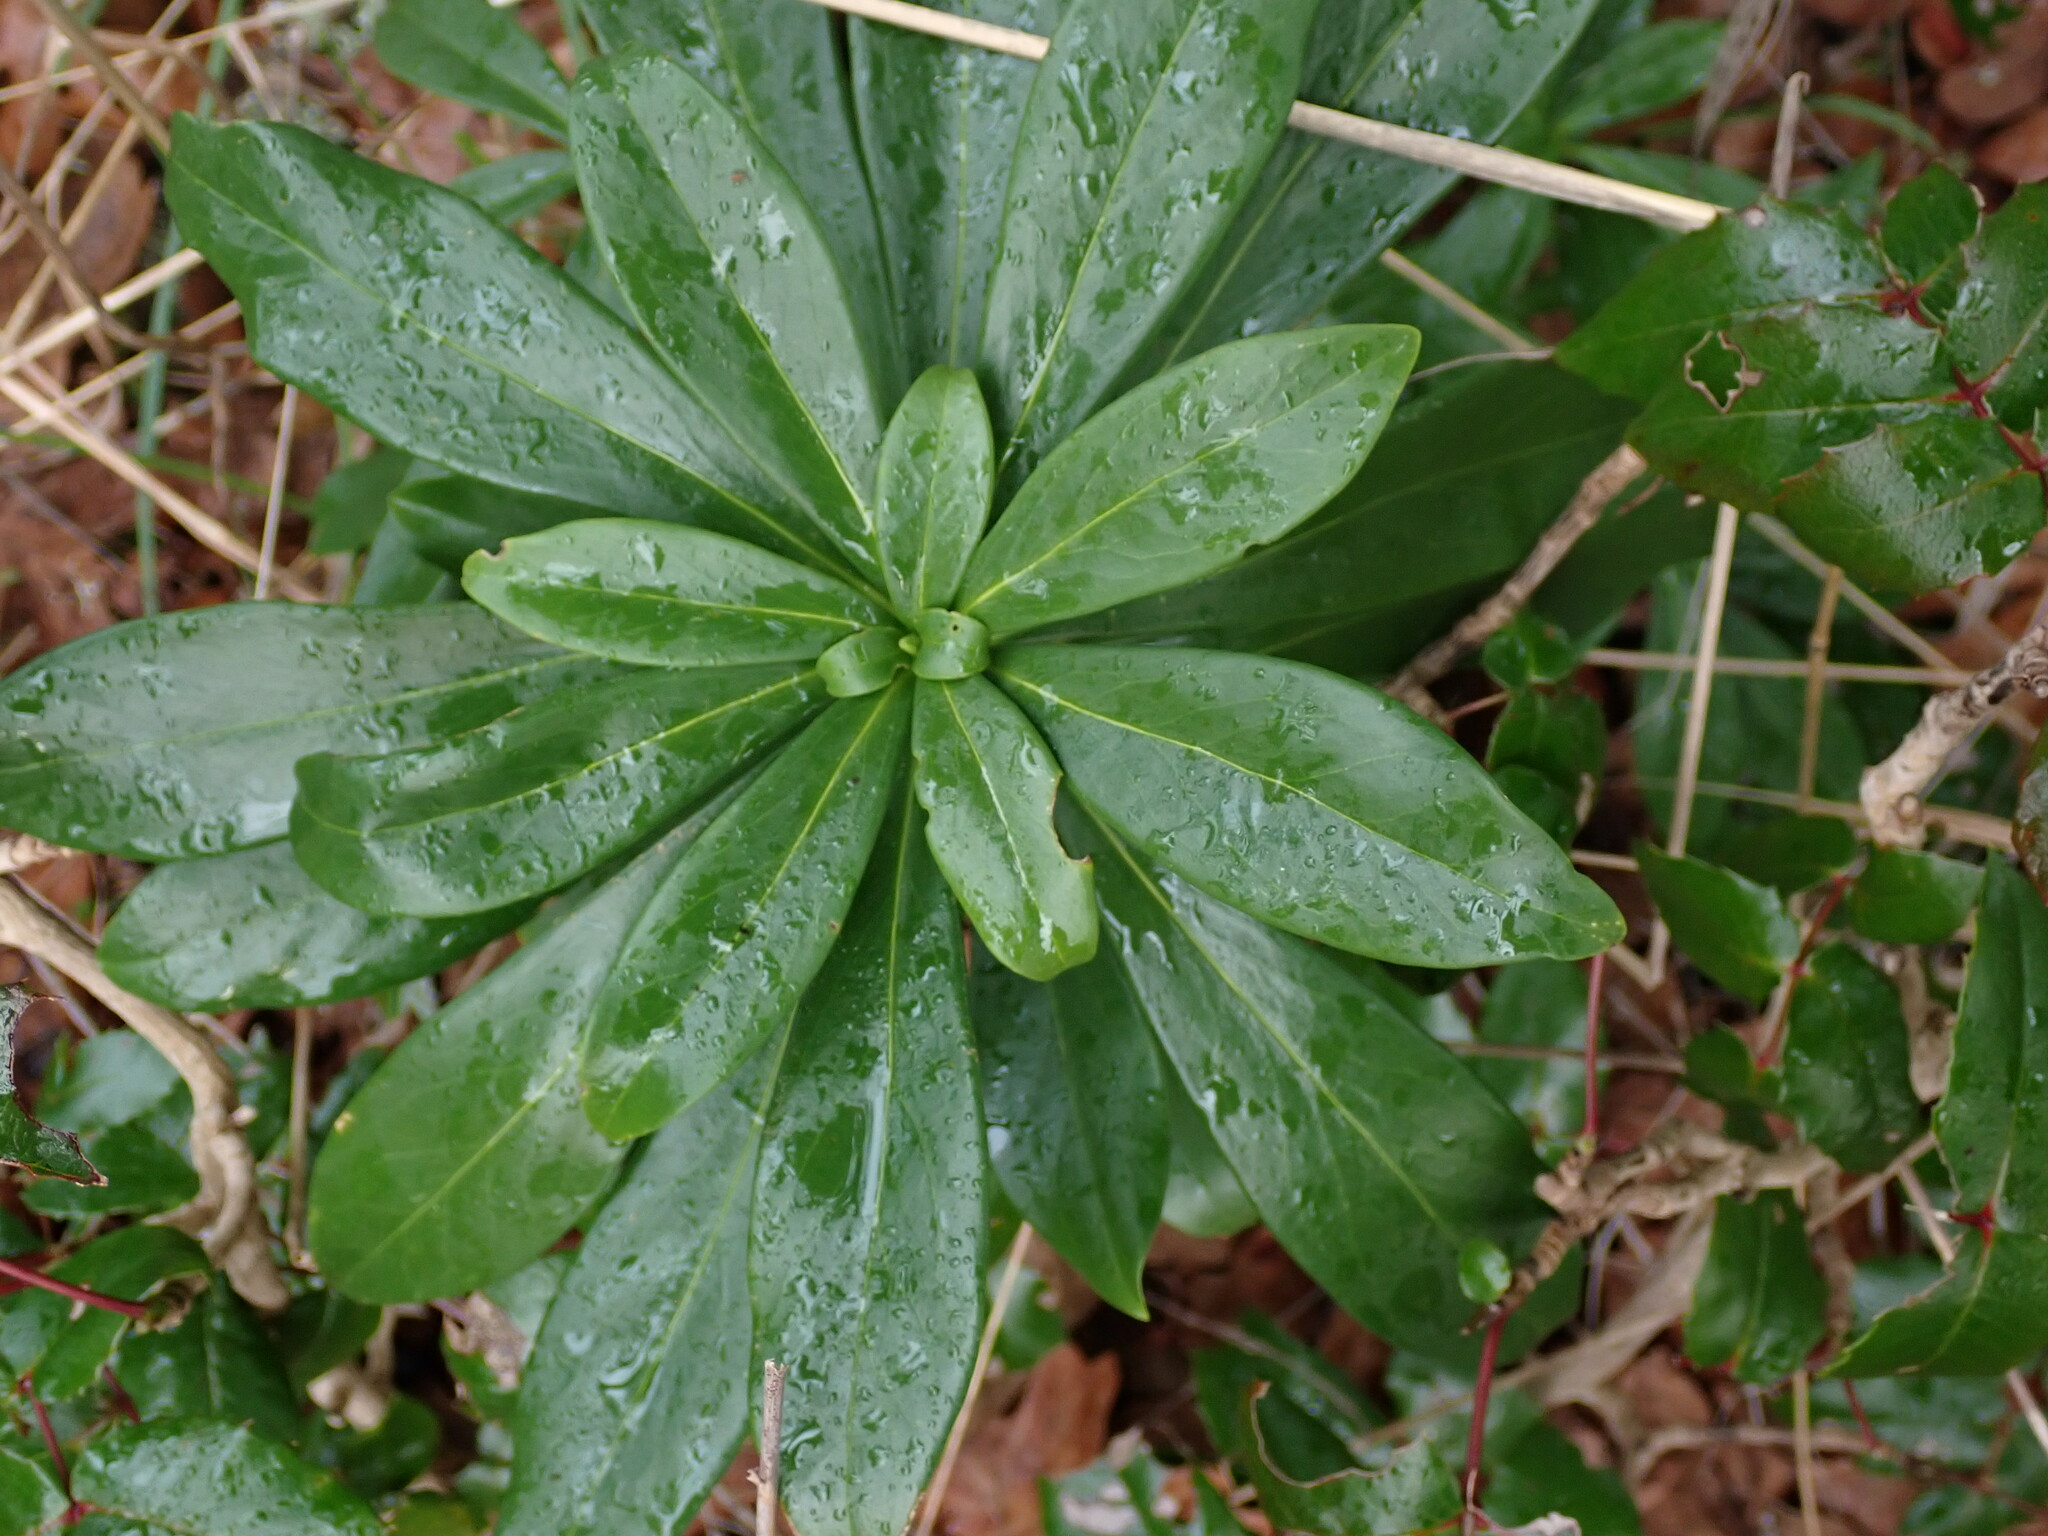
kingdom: Plantae
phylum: Tracheophyta
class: Magnoliopsida
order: Malvales
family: Thymelaeaceae
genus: Daphne
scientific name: Daphne laureola
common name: Spurge-laurel
